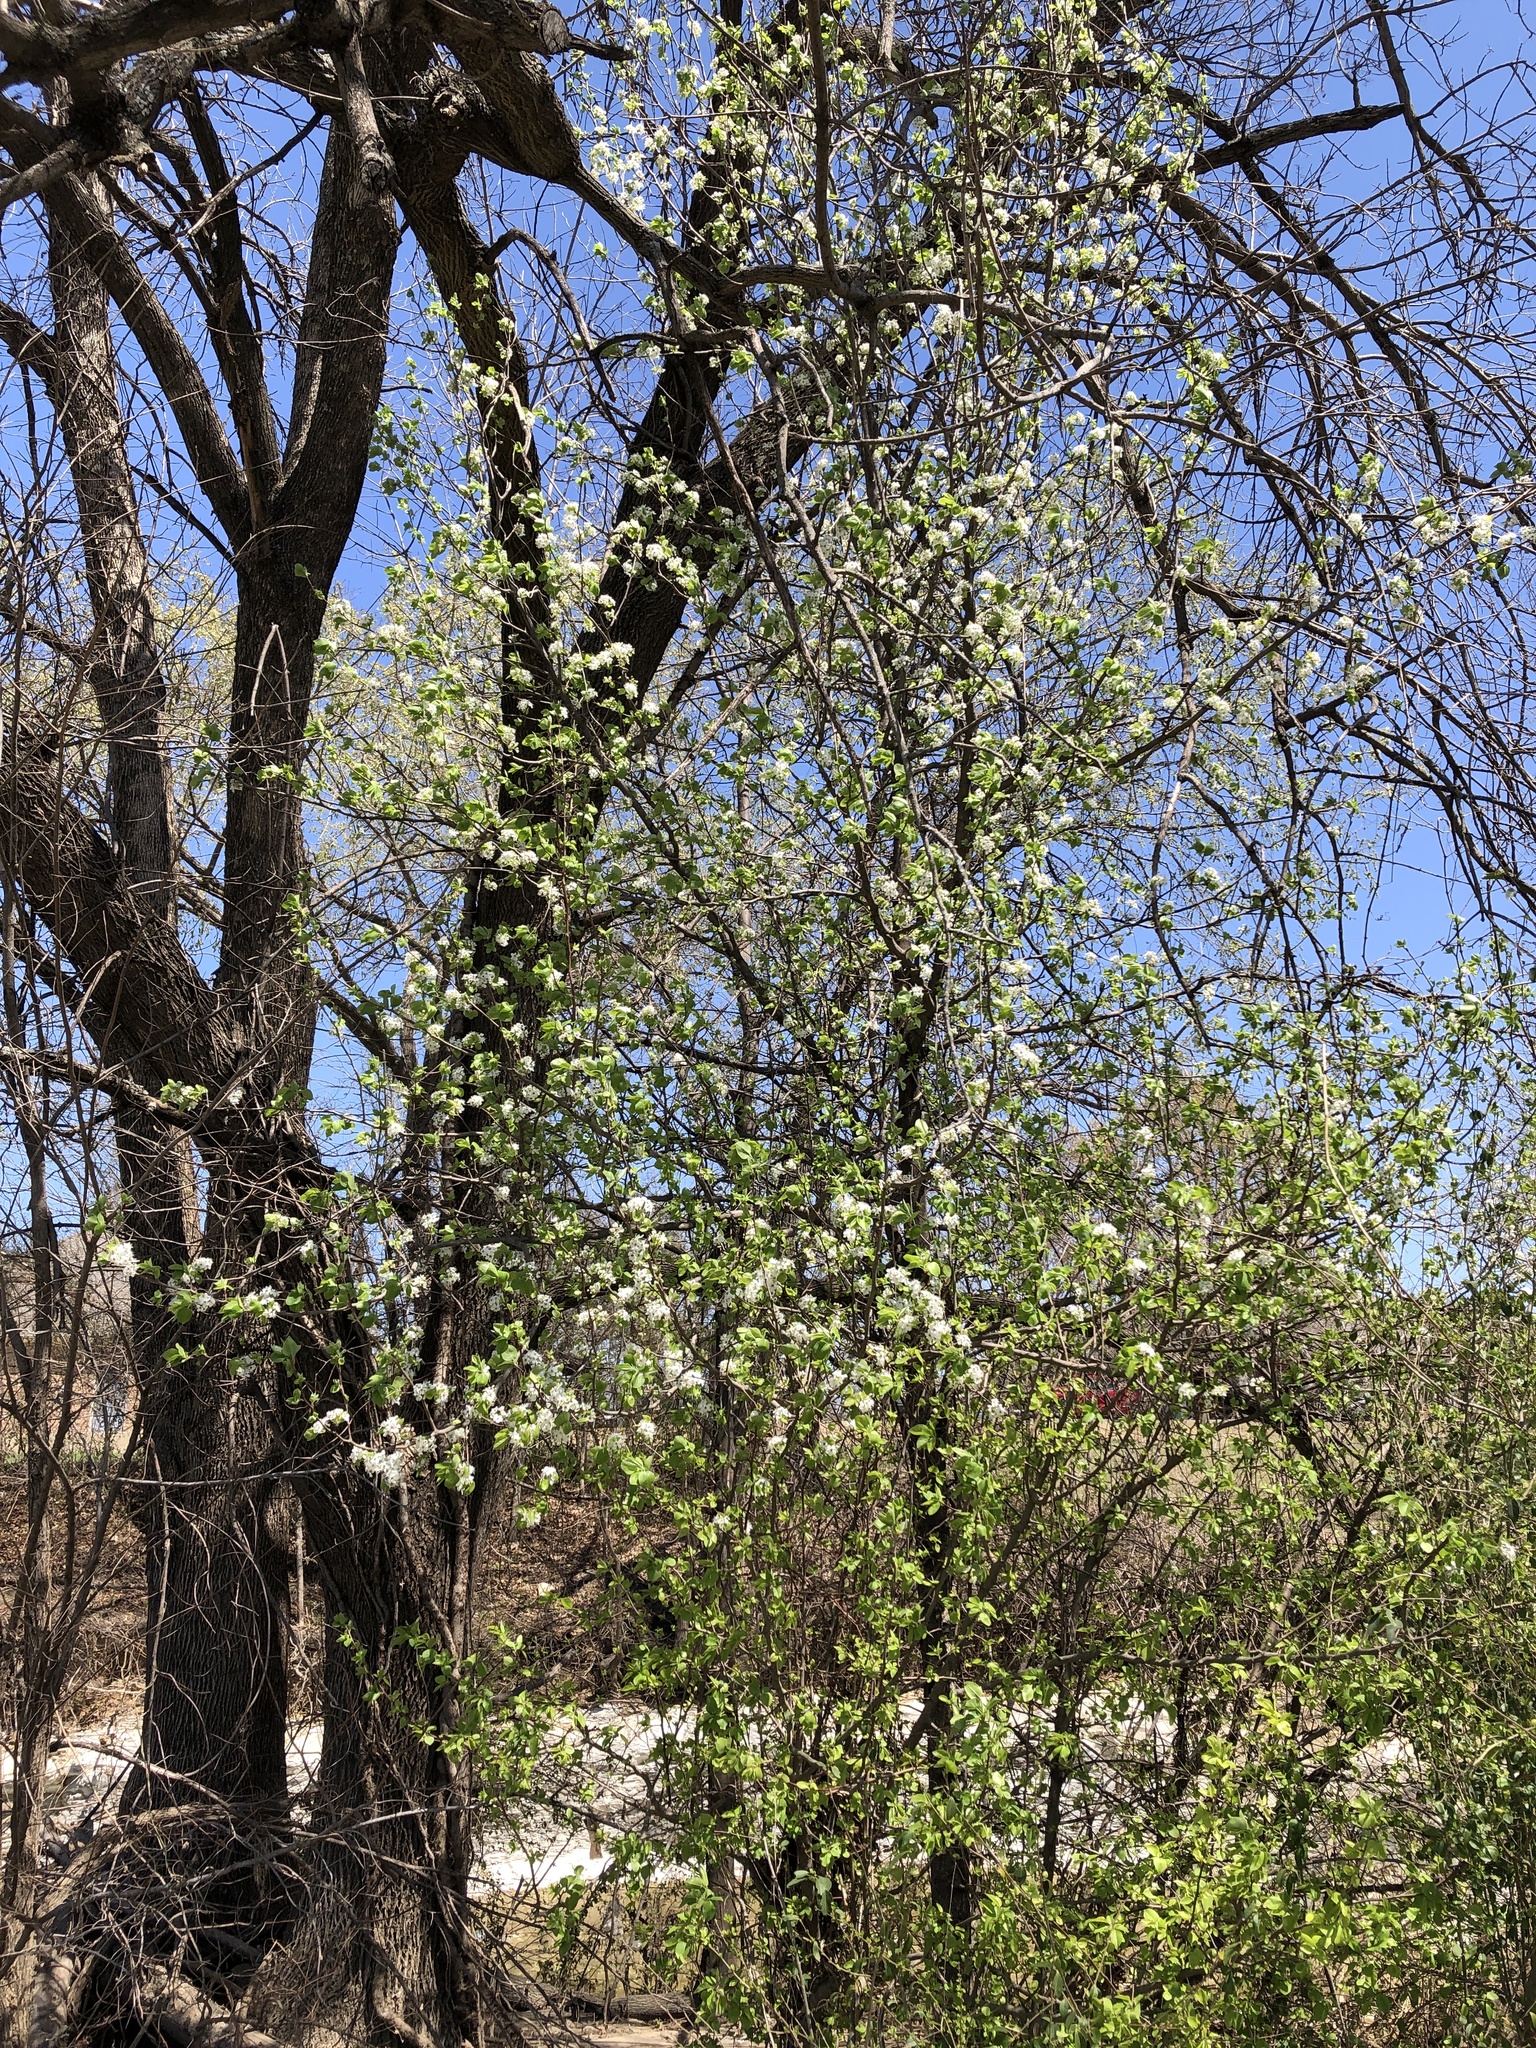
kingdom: Plantae
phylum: Tracheophyta
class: Magnoliopsida
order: Rosales
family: Rosaceae
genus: Pyrus
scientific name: Pyrus calleryana
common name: Callery pear
